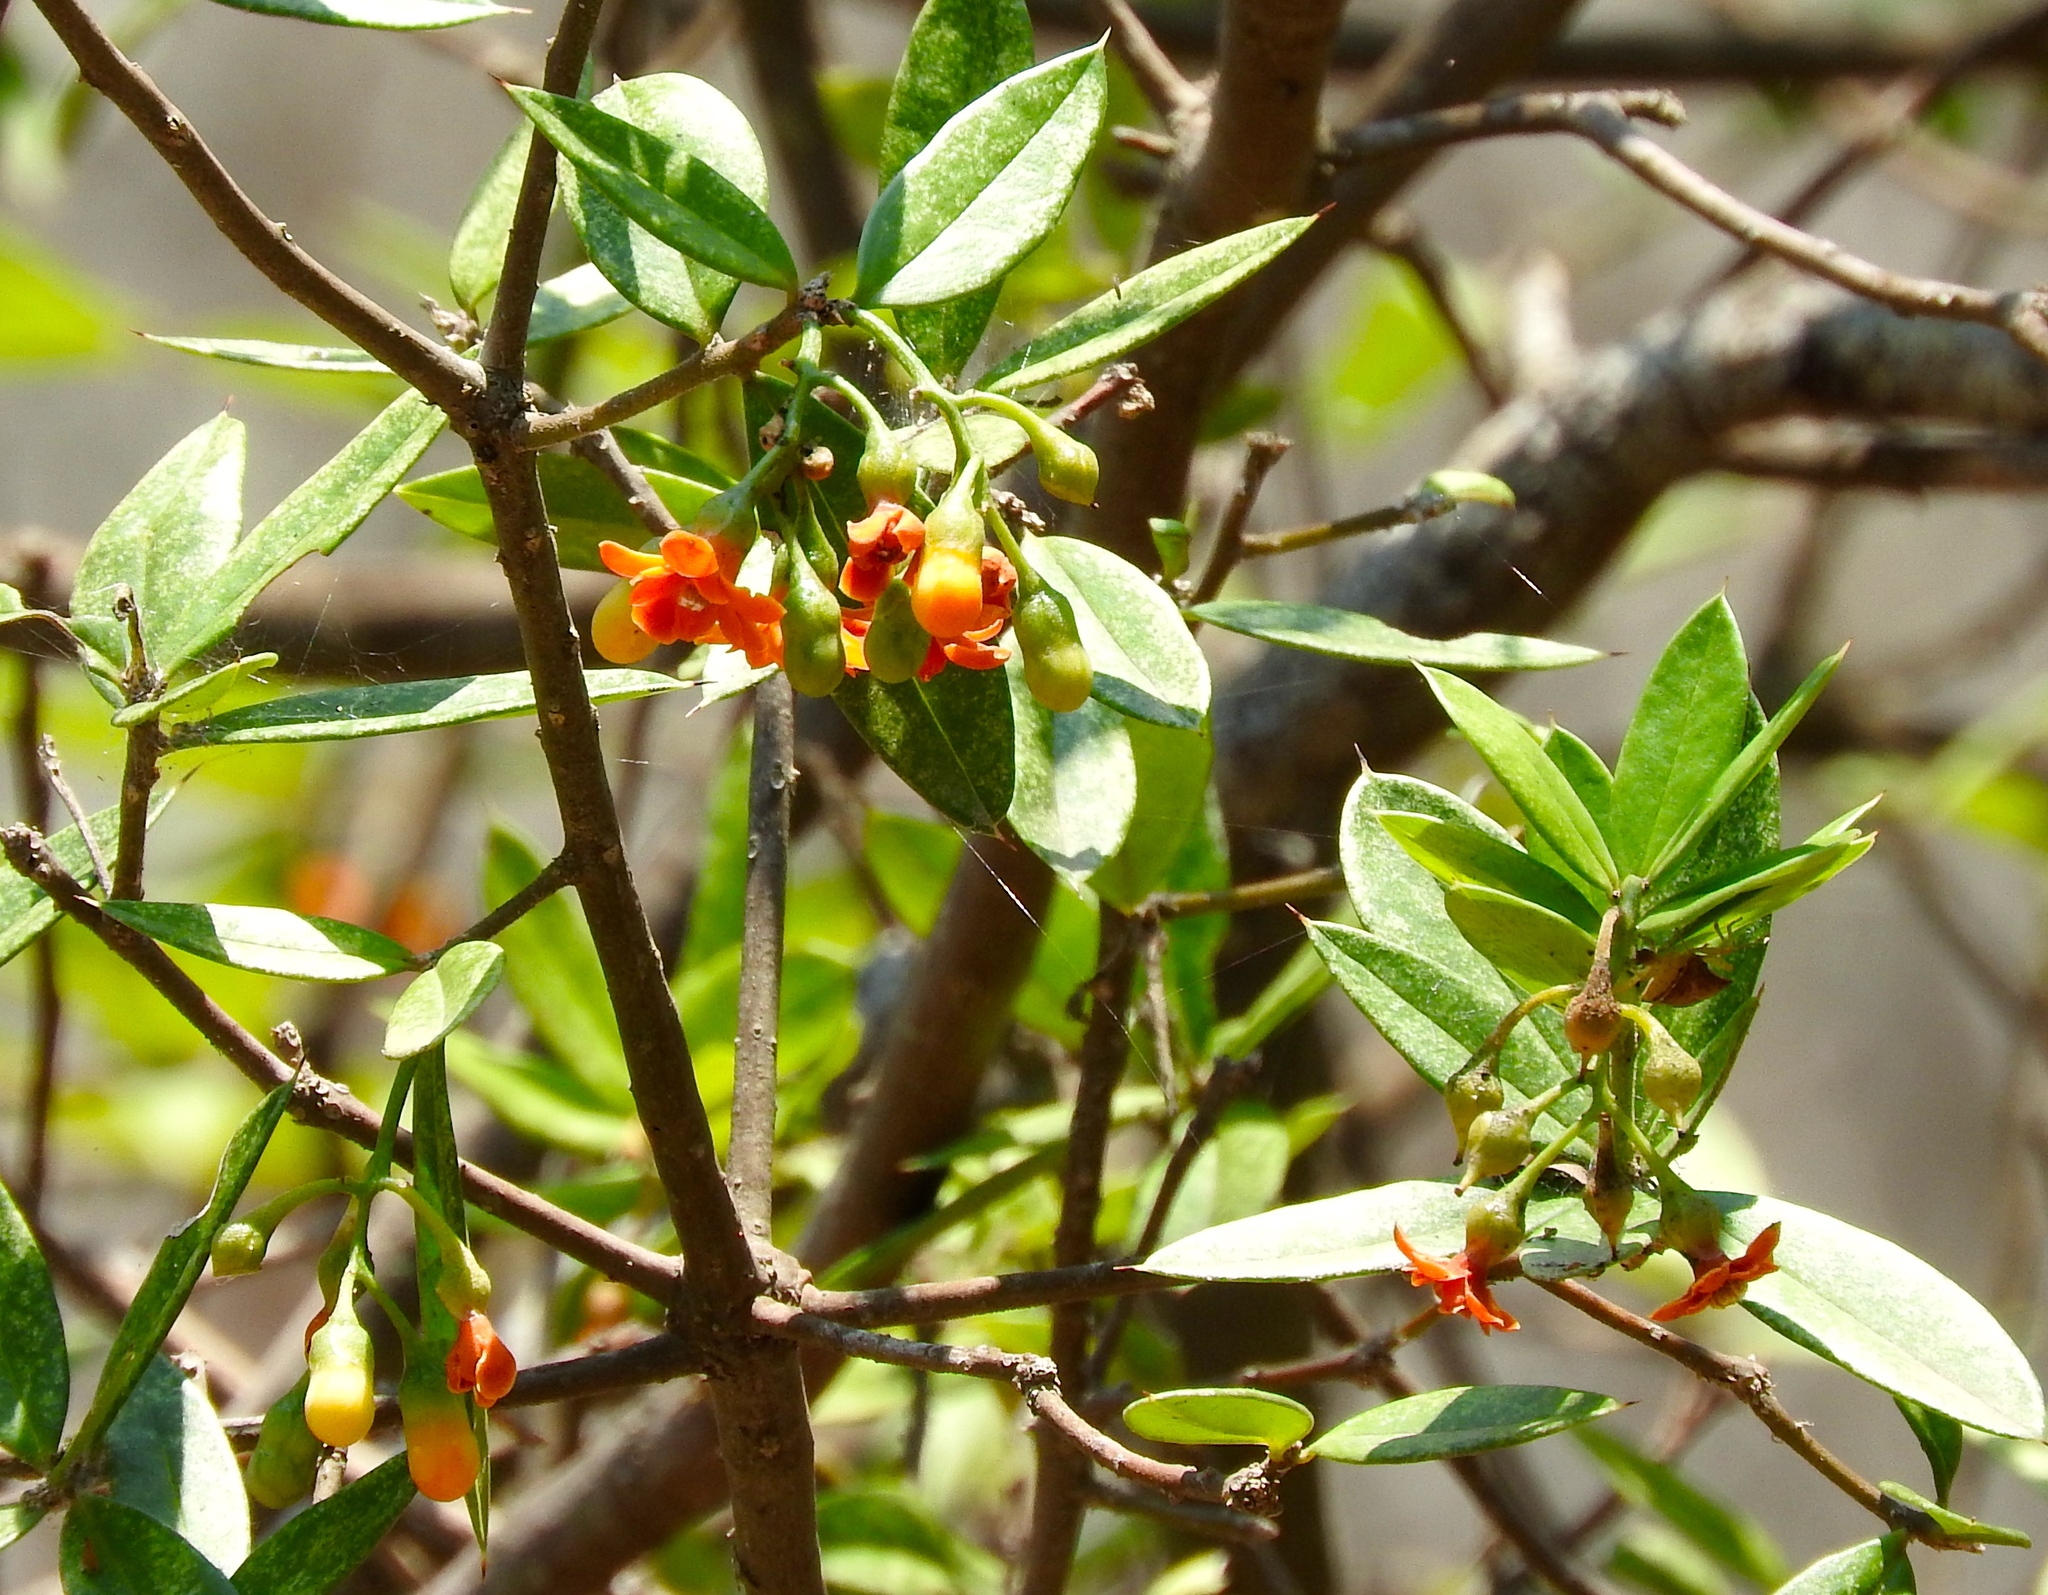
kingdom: Plantae
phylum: Tracheophyta
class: Magnoliopsida
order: Ericales
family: Primulaceae
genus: Bonellia
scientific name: Bonellia macrocarpa
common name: Primrose
